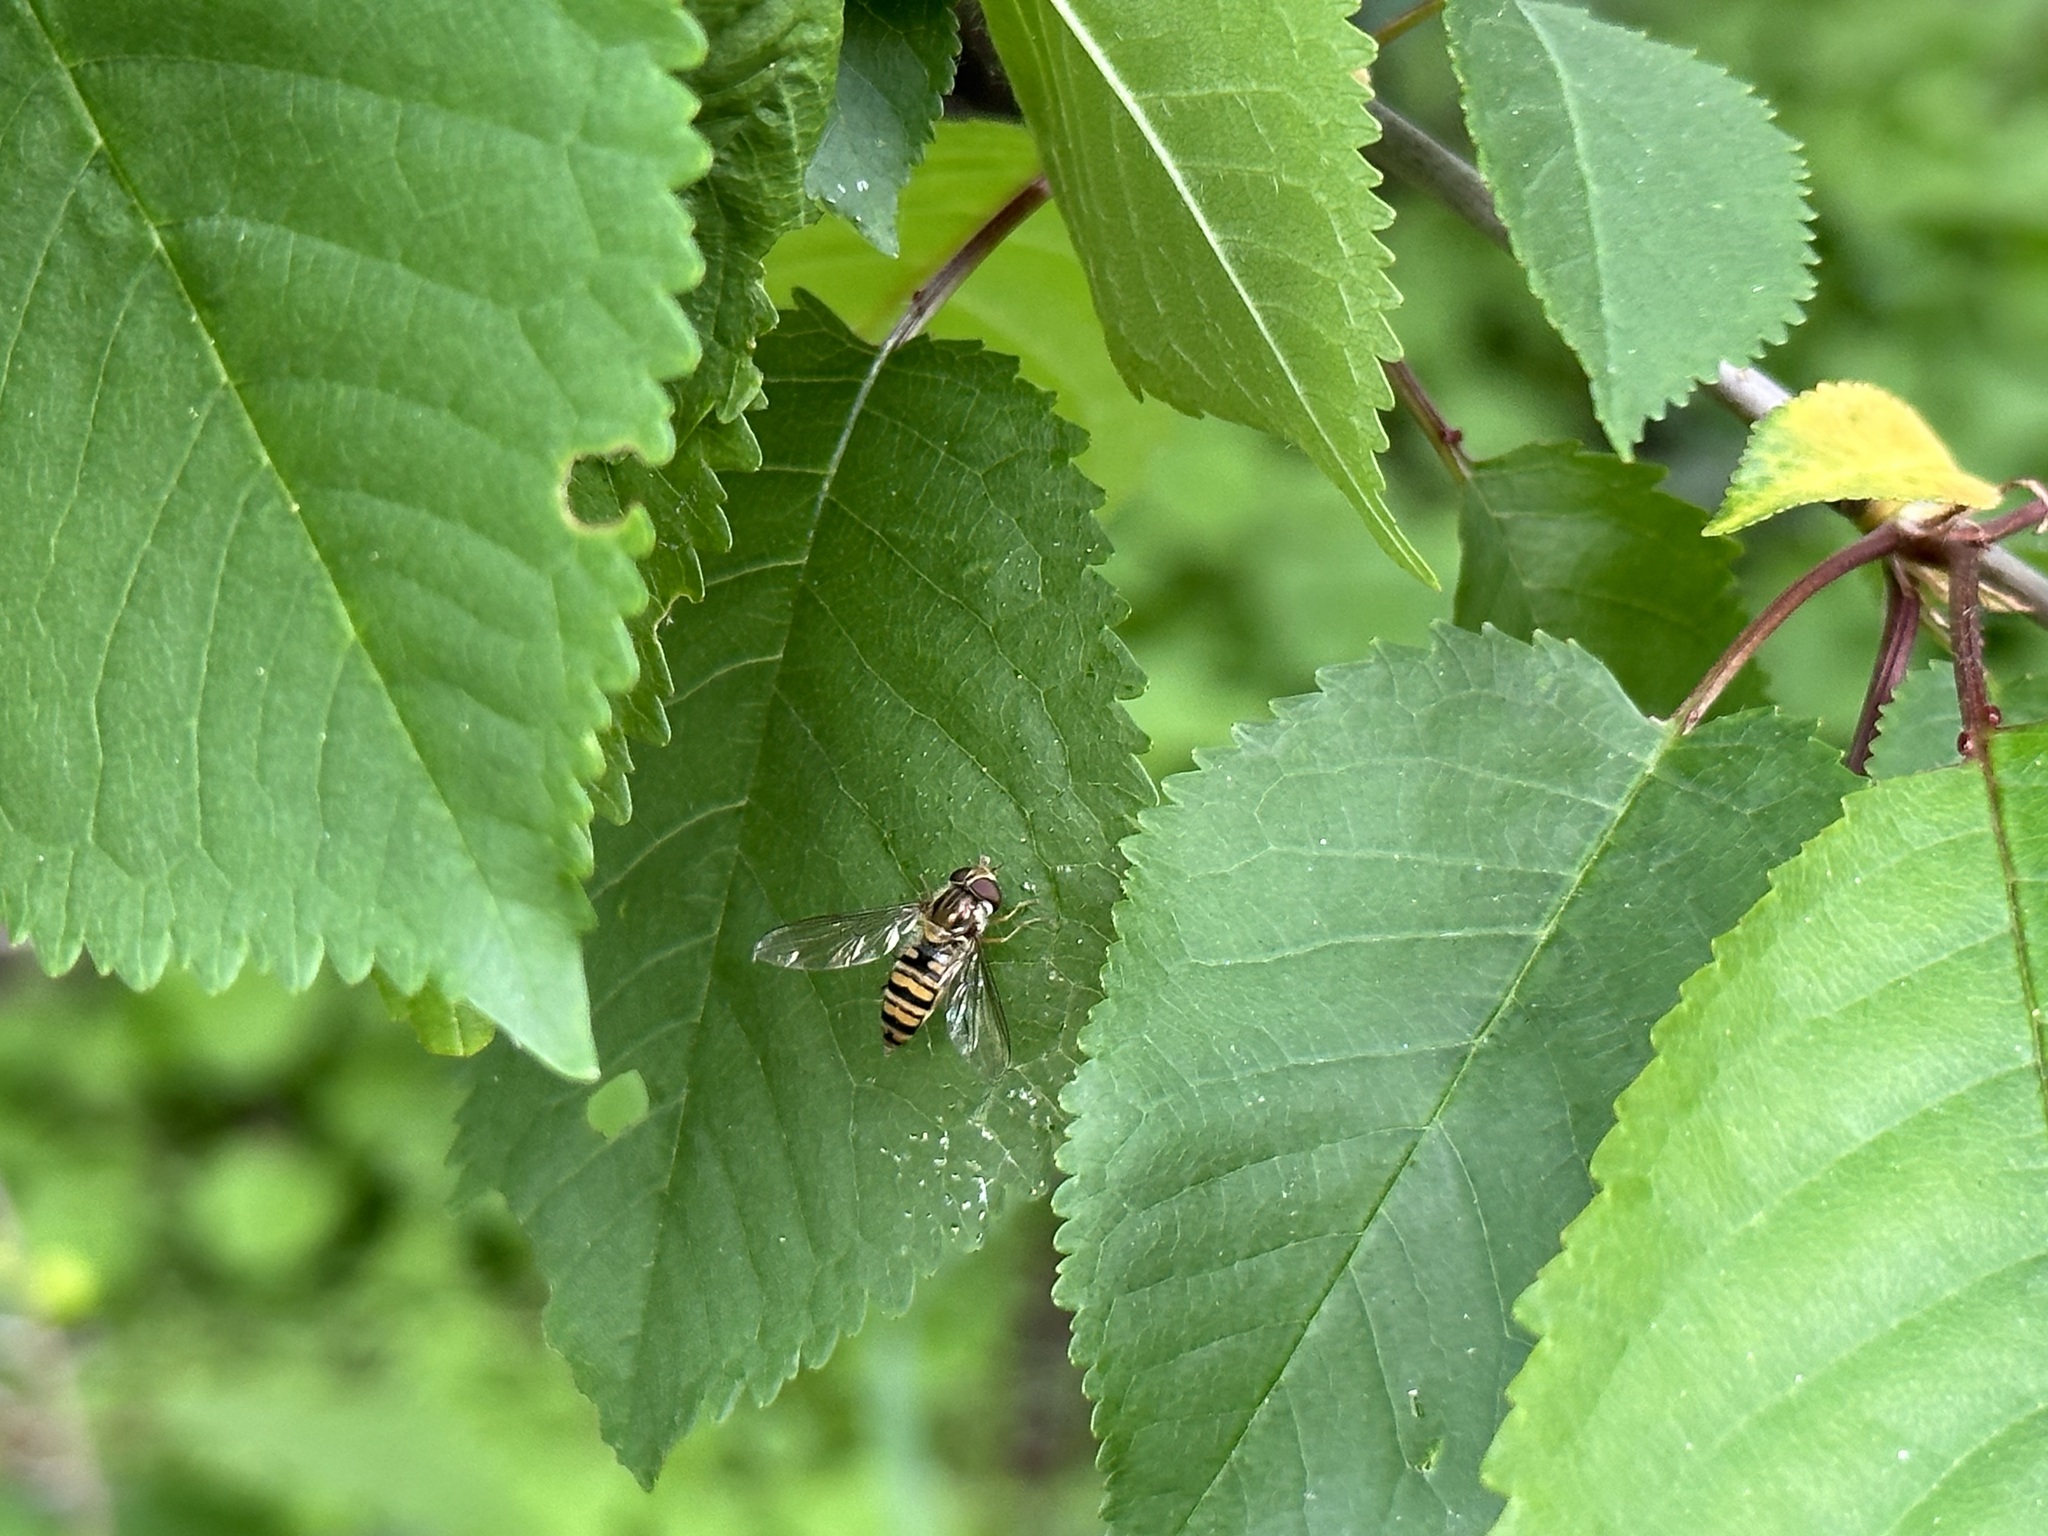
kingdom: Animalia
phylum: Arthropoda
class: Insecta
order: Diptera
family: Syrphidae
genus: Episyrphus
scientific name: Episyrphus balteatus
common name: Marmalade hoverfly
